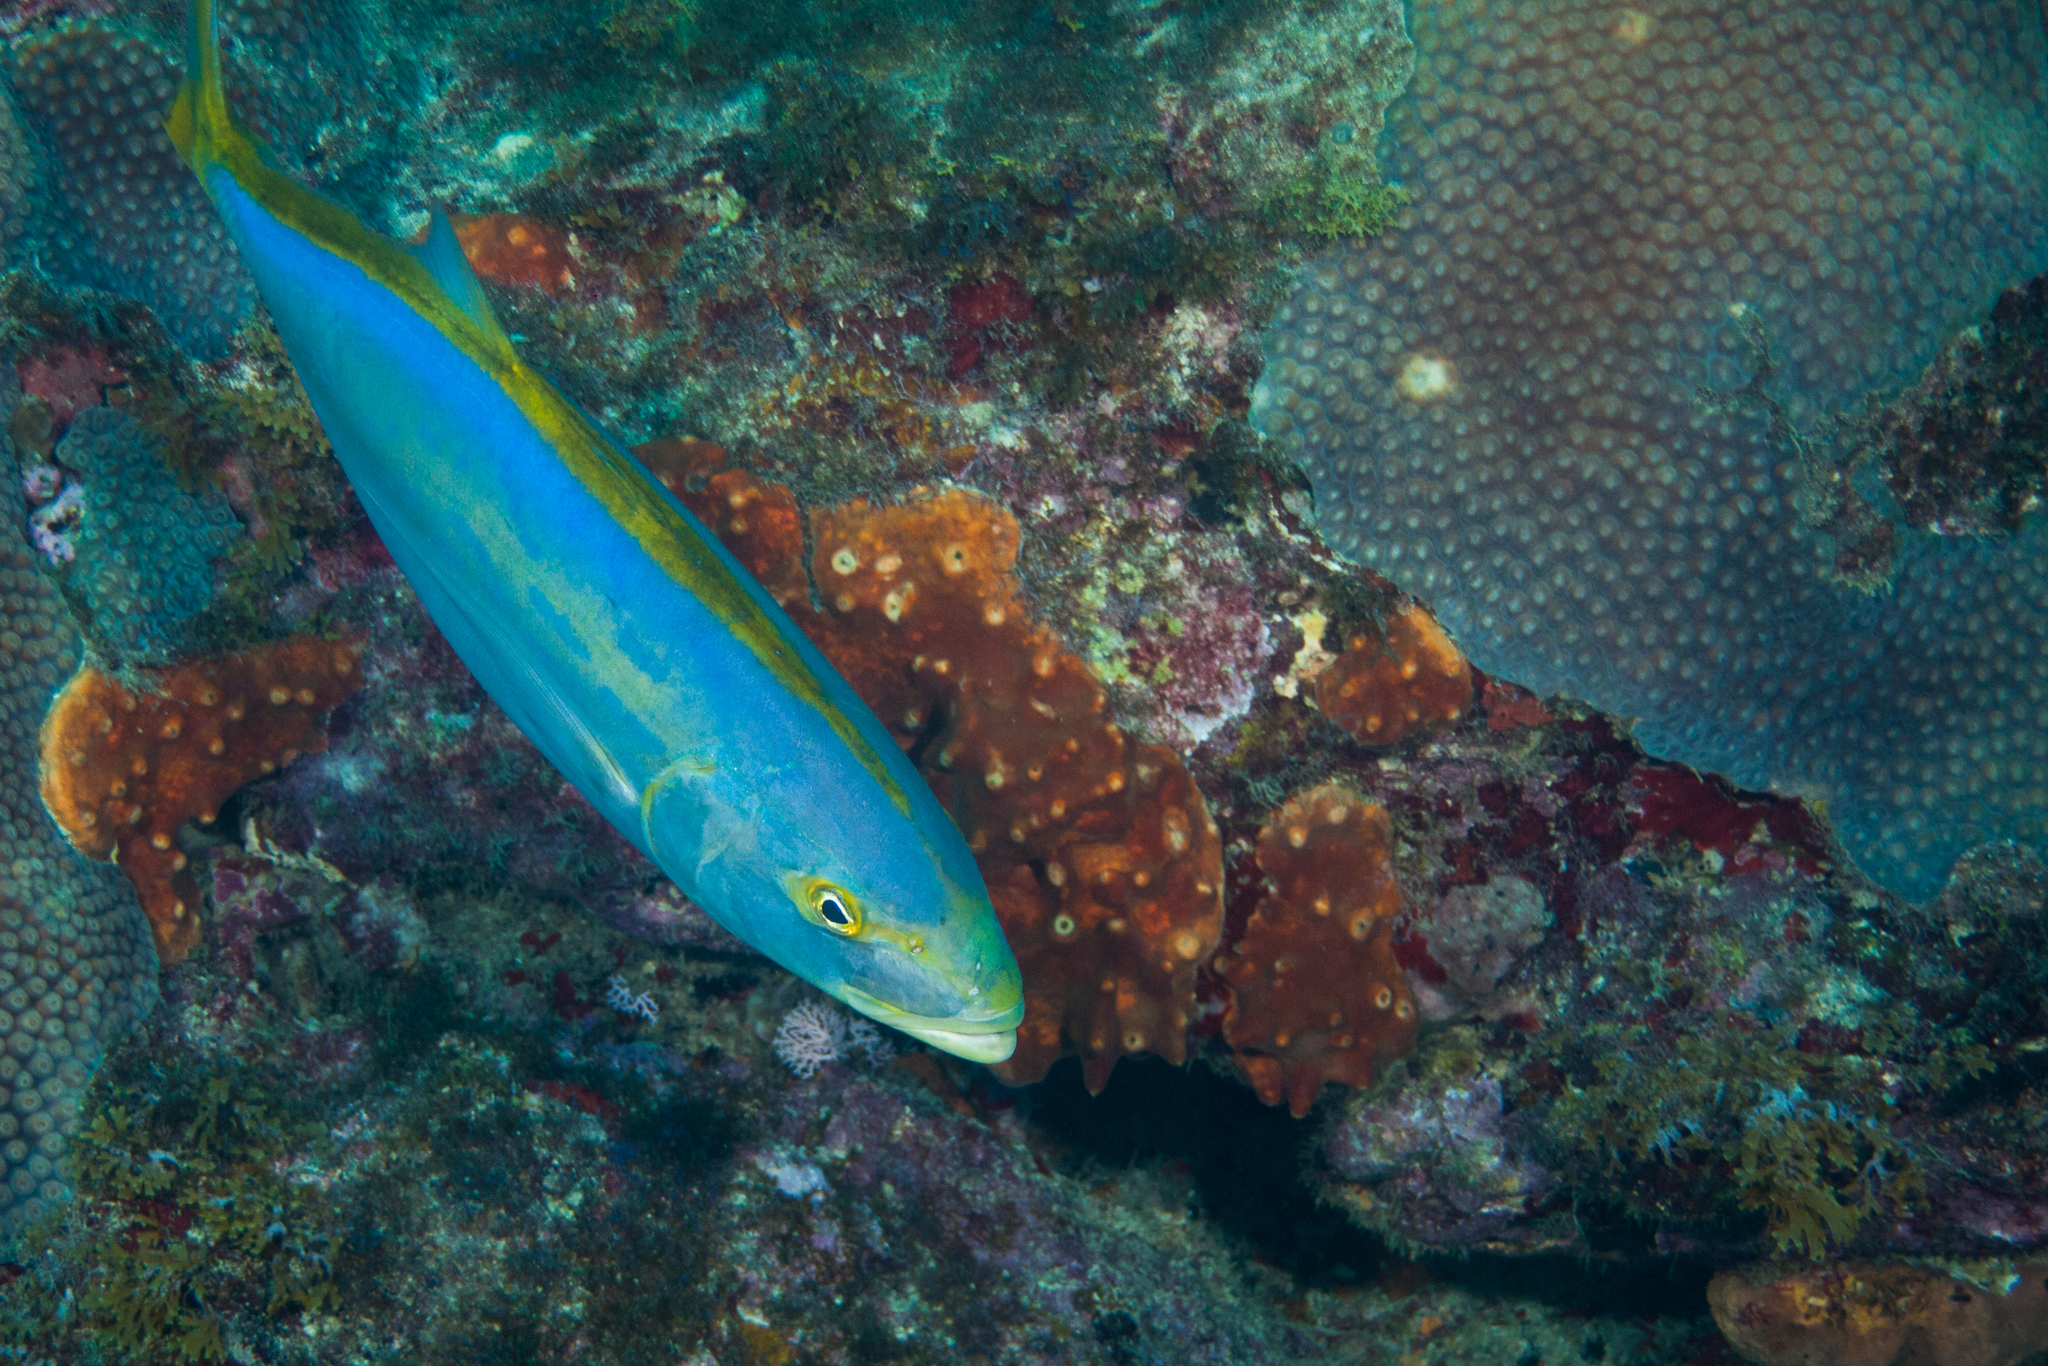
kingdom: Animalia
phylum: Chordata
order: Perciformes
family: Carangidae
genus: Carangoides
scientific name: Carangoides bartholomaei
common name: Yellow jack
